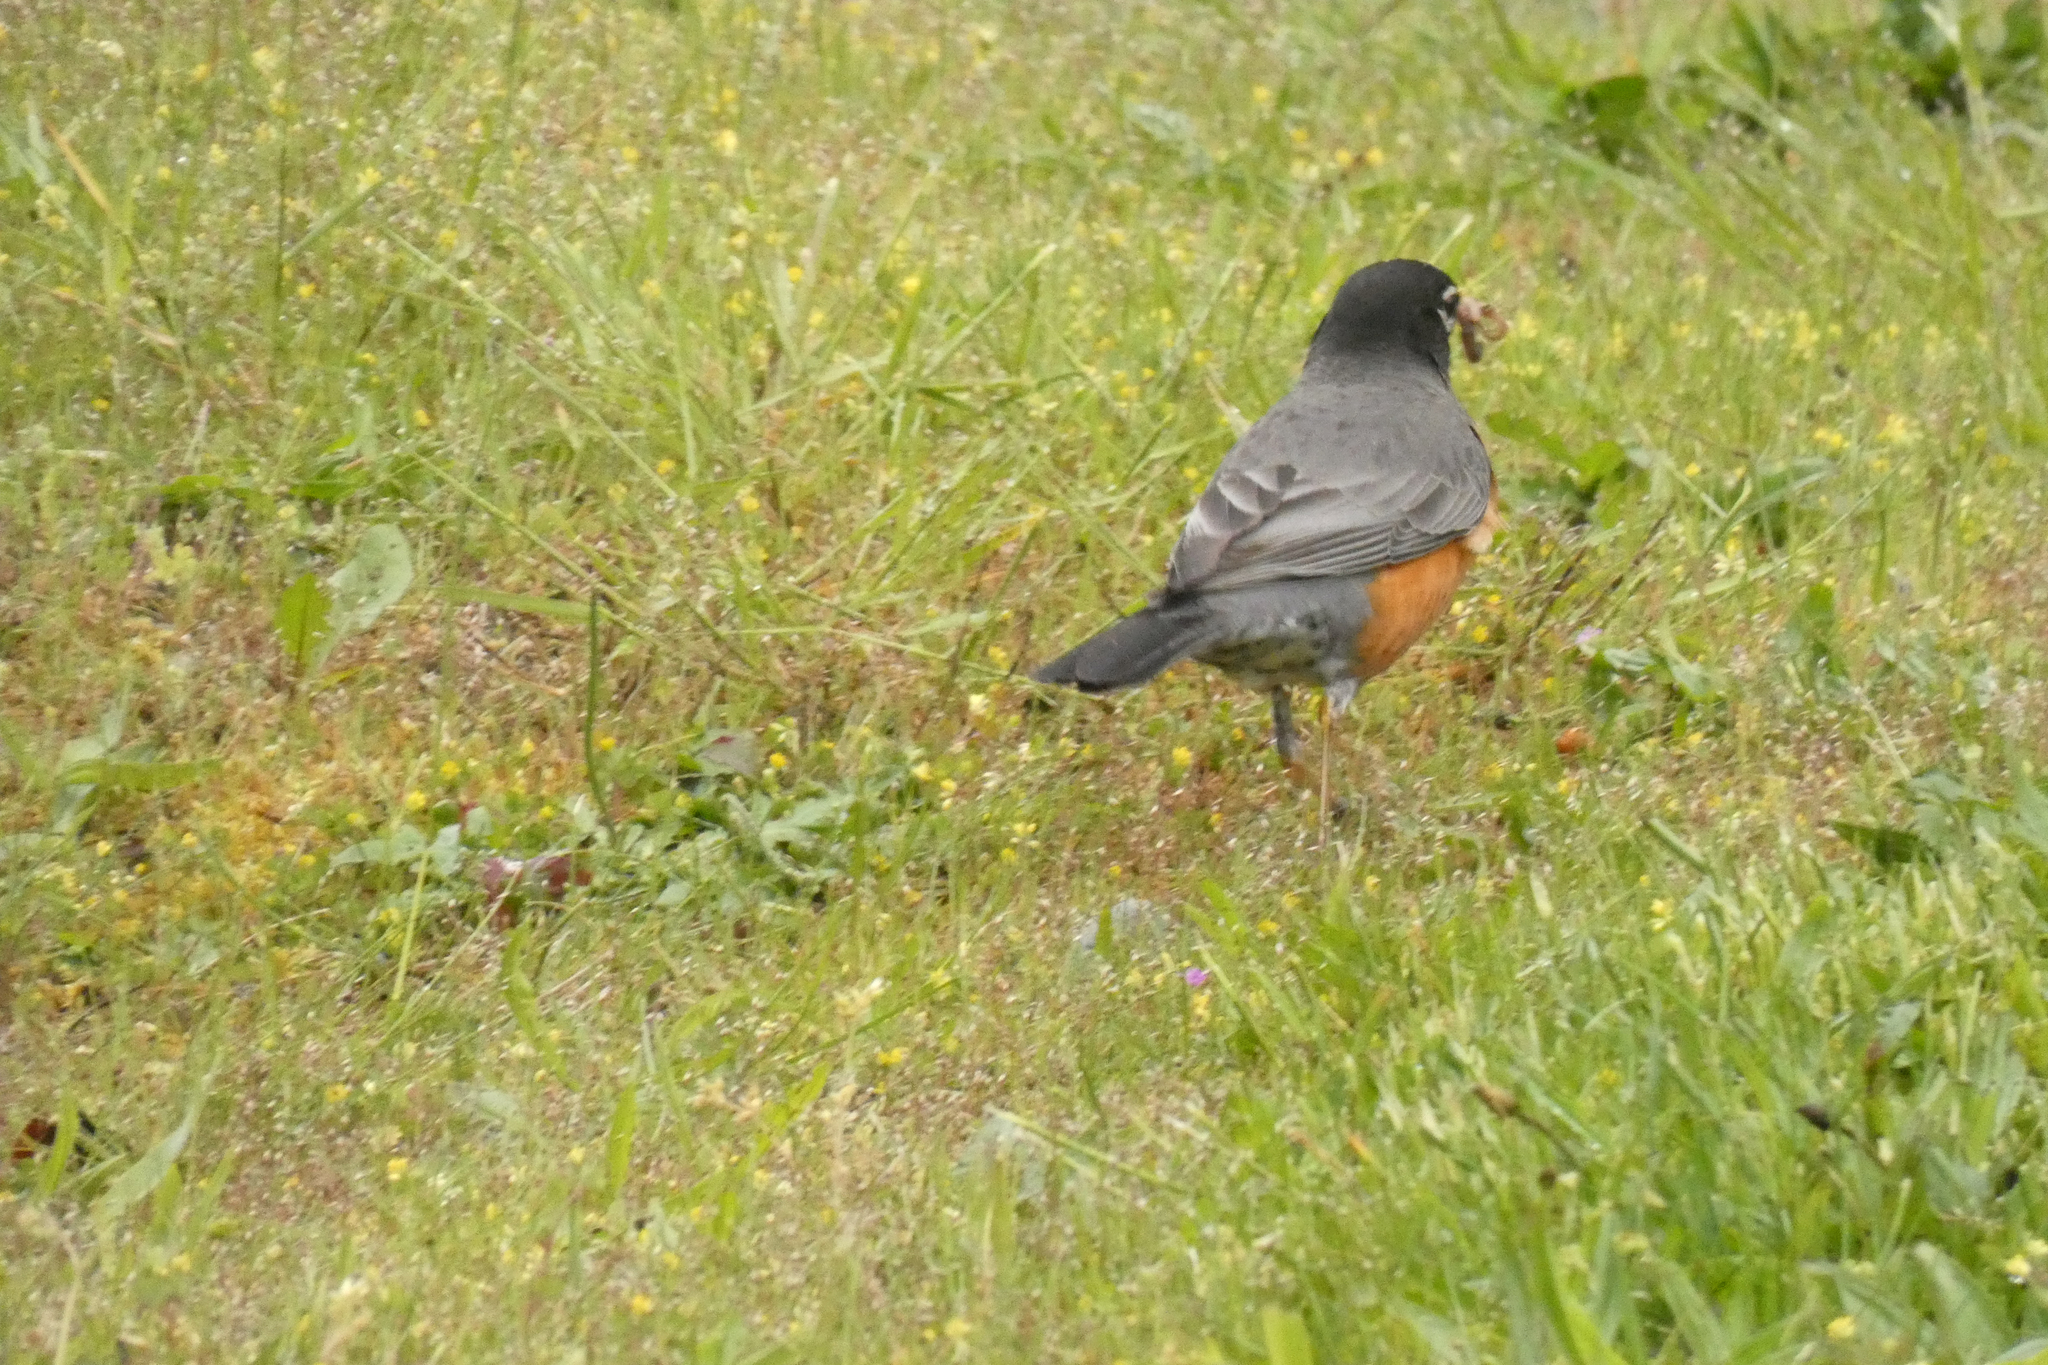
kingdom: Animalia
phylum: Chordata
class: Aves
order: Passeriformes
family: Turdidae
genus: Turdus
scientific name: Turdus migratorius
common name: American robin
